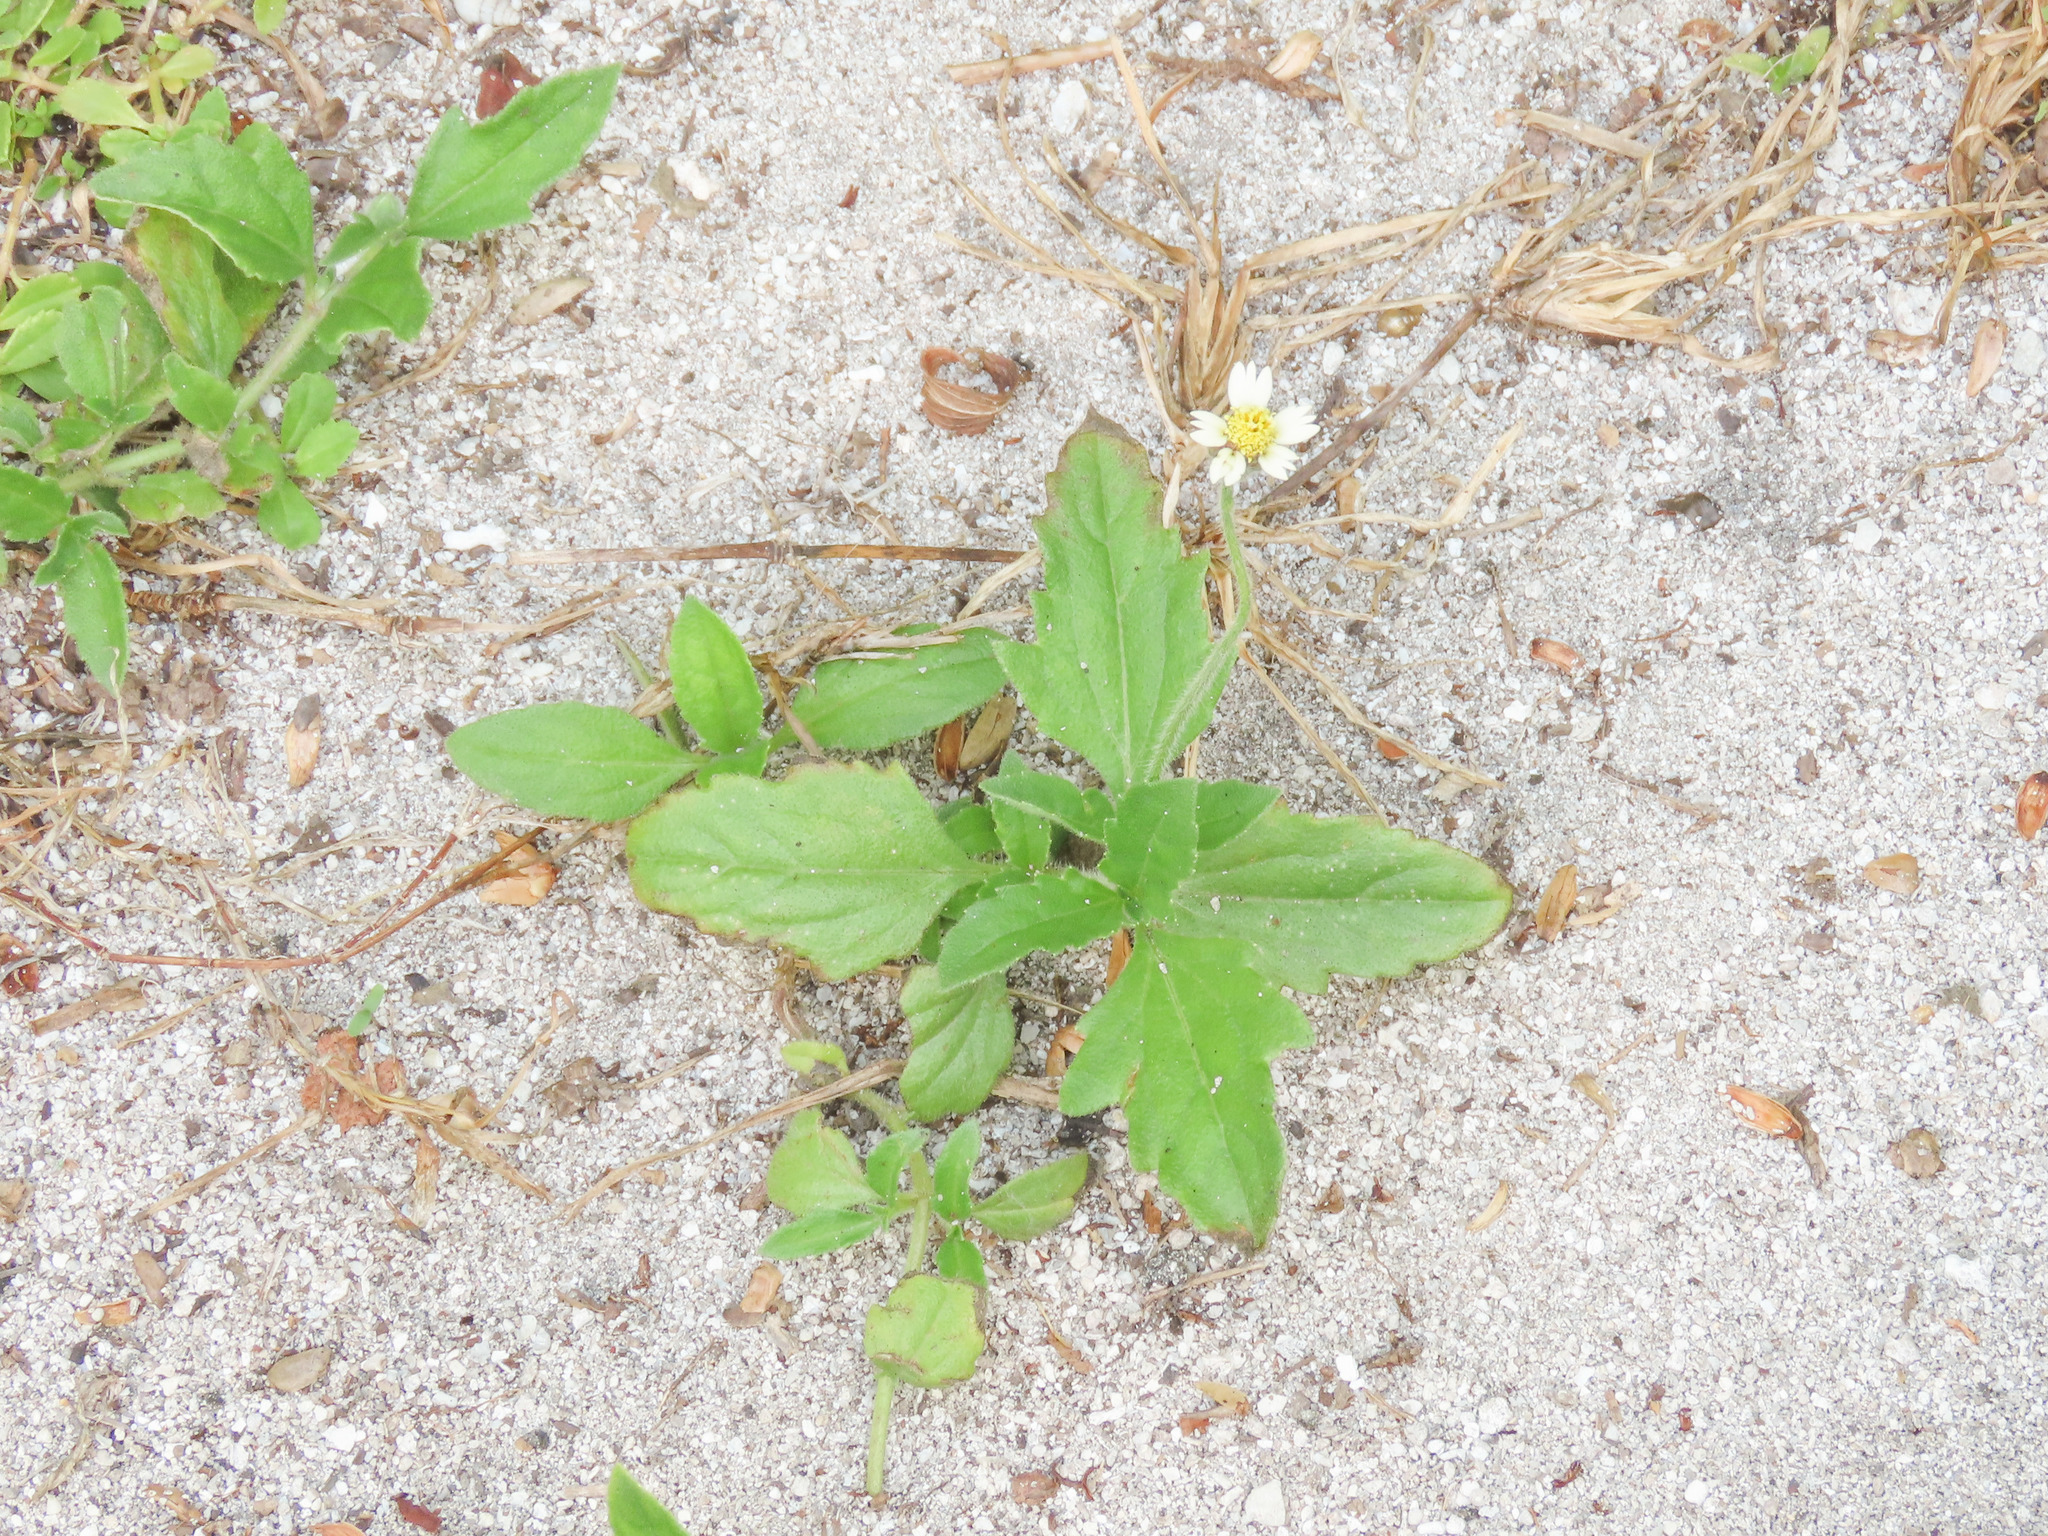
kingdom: Plantae
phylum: Tracheophyta
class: Magnoliopsida
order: Asterales
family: Asteraceae
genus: Tridax
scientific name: Tridax procumbens
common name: Coatbuttons
